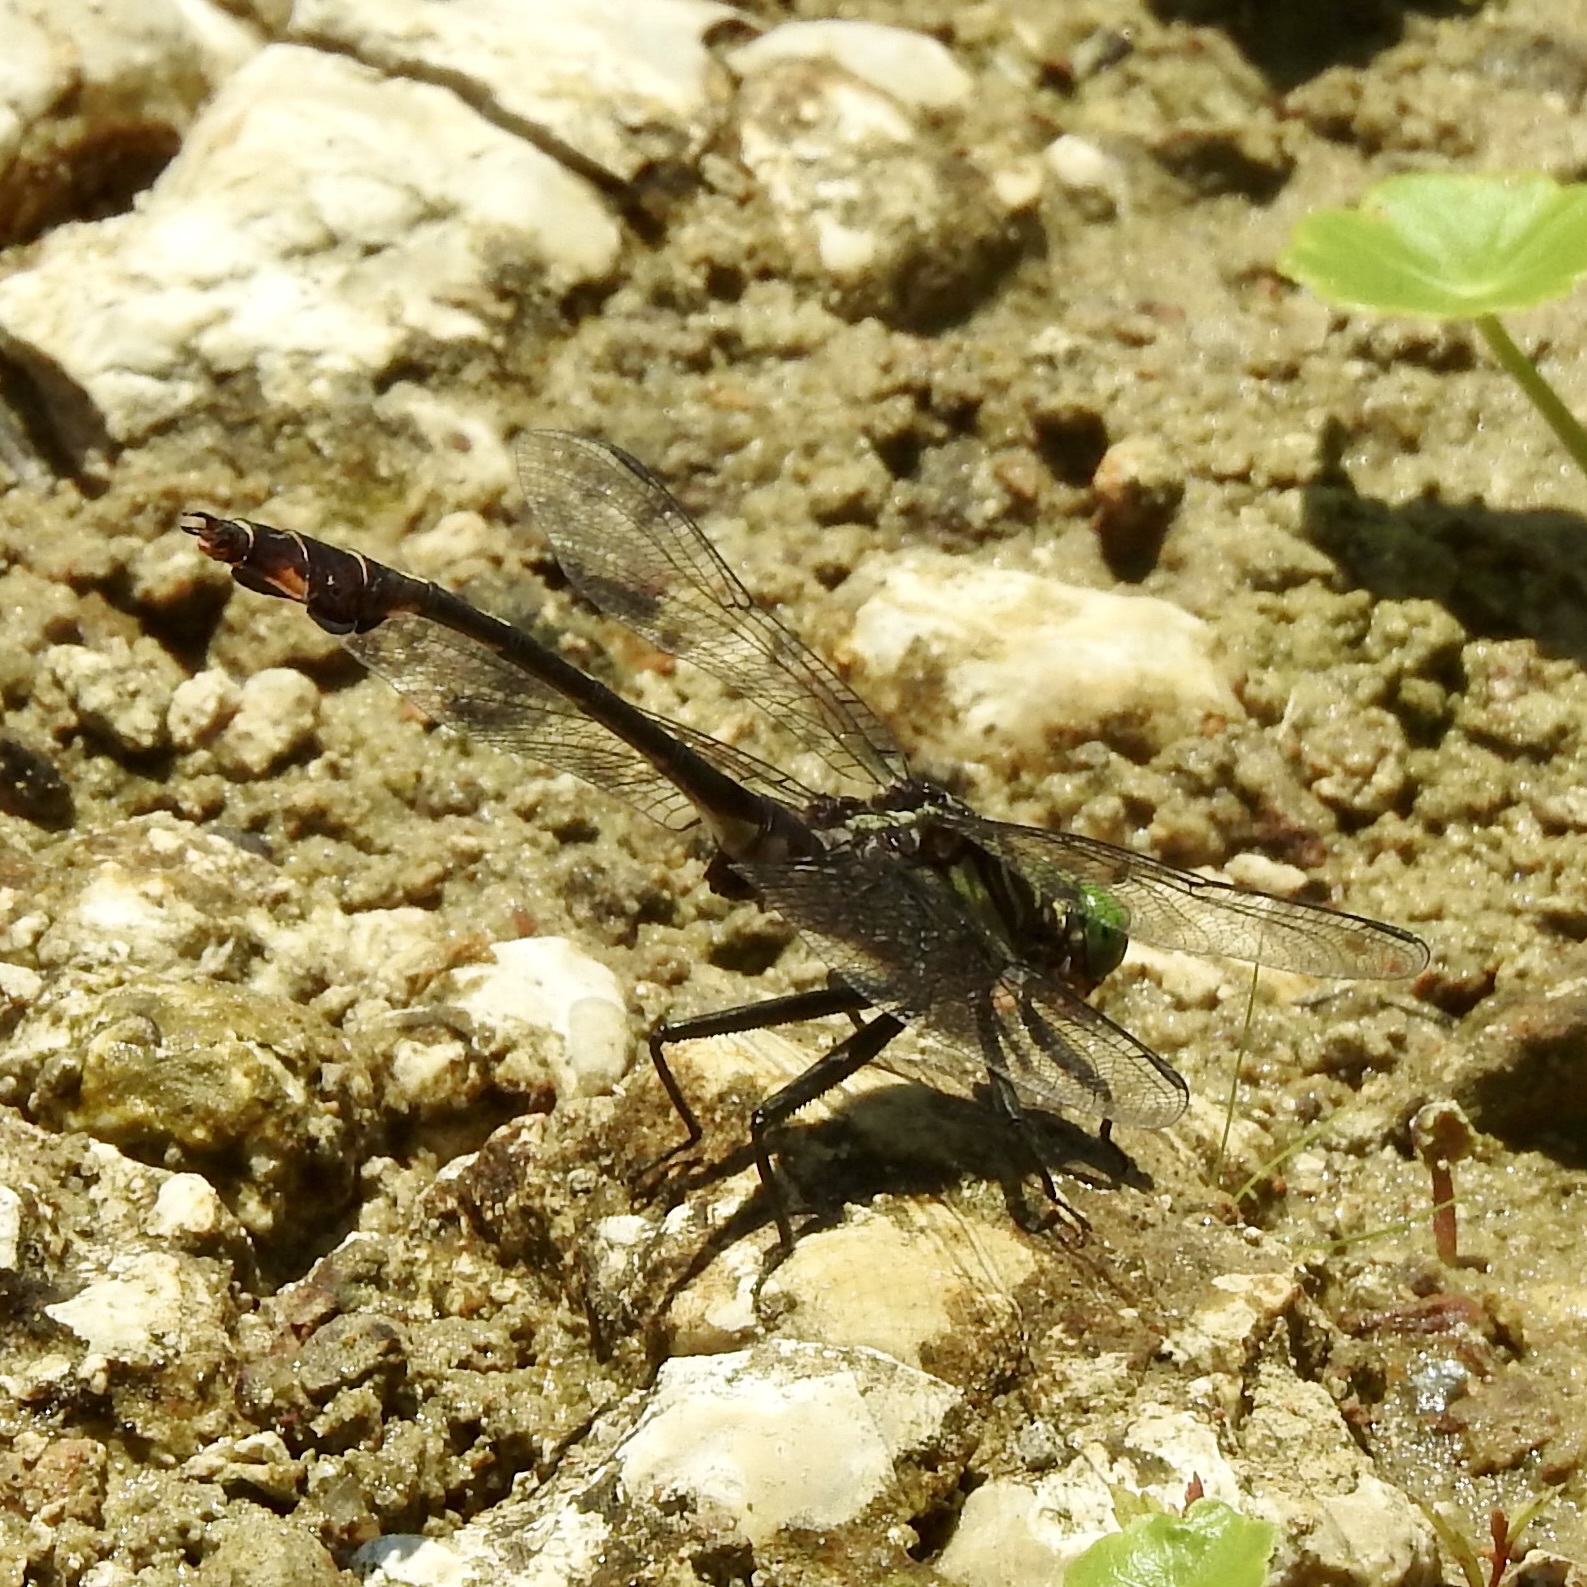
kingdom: Animalia
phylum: Arthropoda
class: Insecta
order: Odonata
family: Gomphidae
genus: Gomphurus
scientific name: Gomphurus vastus
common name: Cobra clubtail
